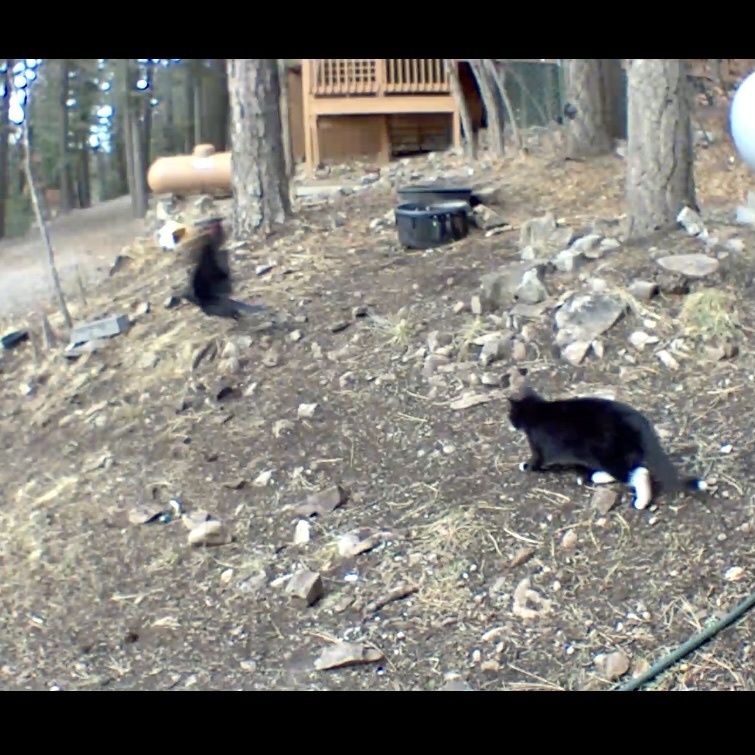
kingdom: Animalia
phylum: Chordata
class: Aves
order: Passeriformes
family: Corvidae
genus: Corvus
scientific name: Corvus corax
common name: Common raven
